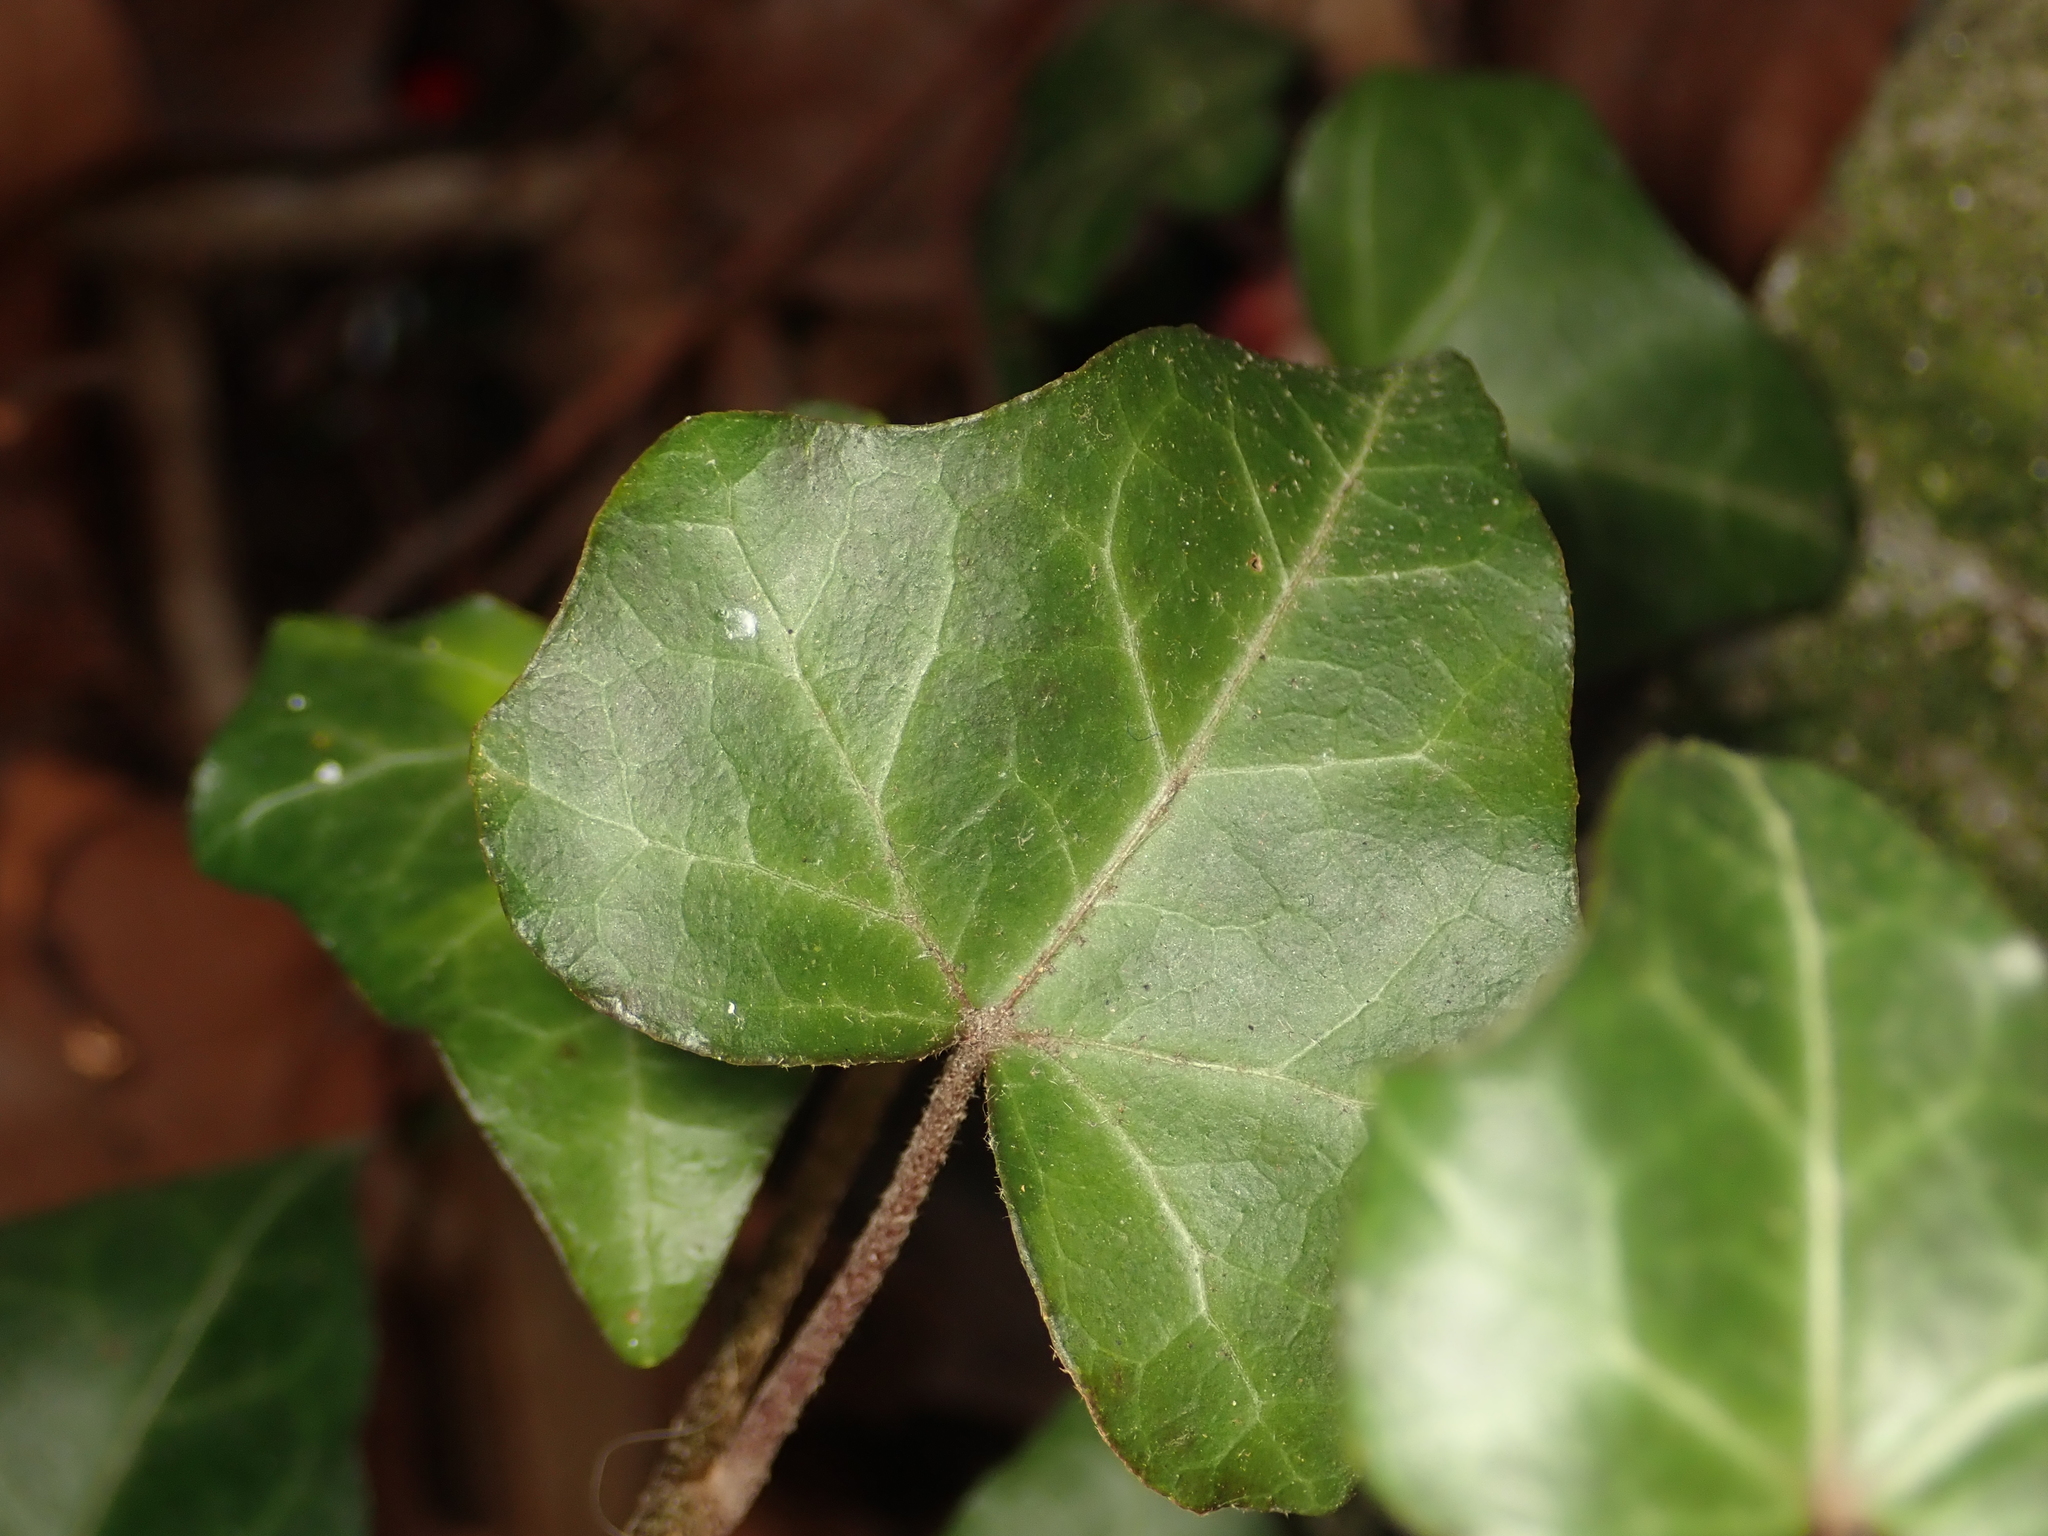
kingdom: Plantae
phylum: Tracheophyta
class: Magnoliopsida
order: Apiales
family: Araliaceae
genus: Hedera
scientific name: Hedera helix
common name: Ivy
